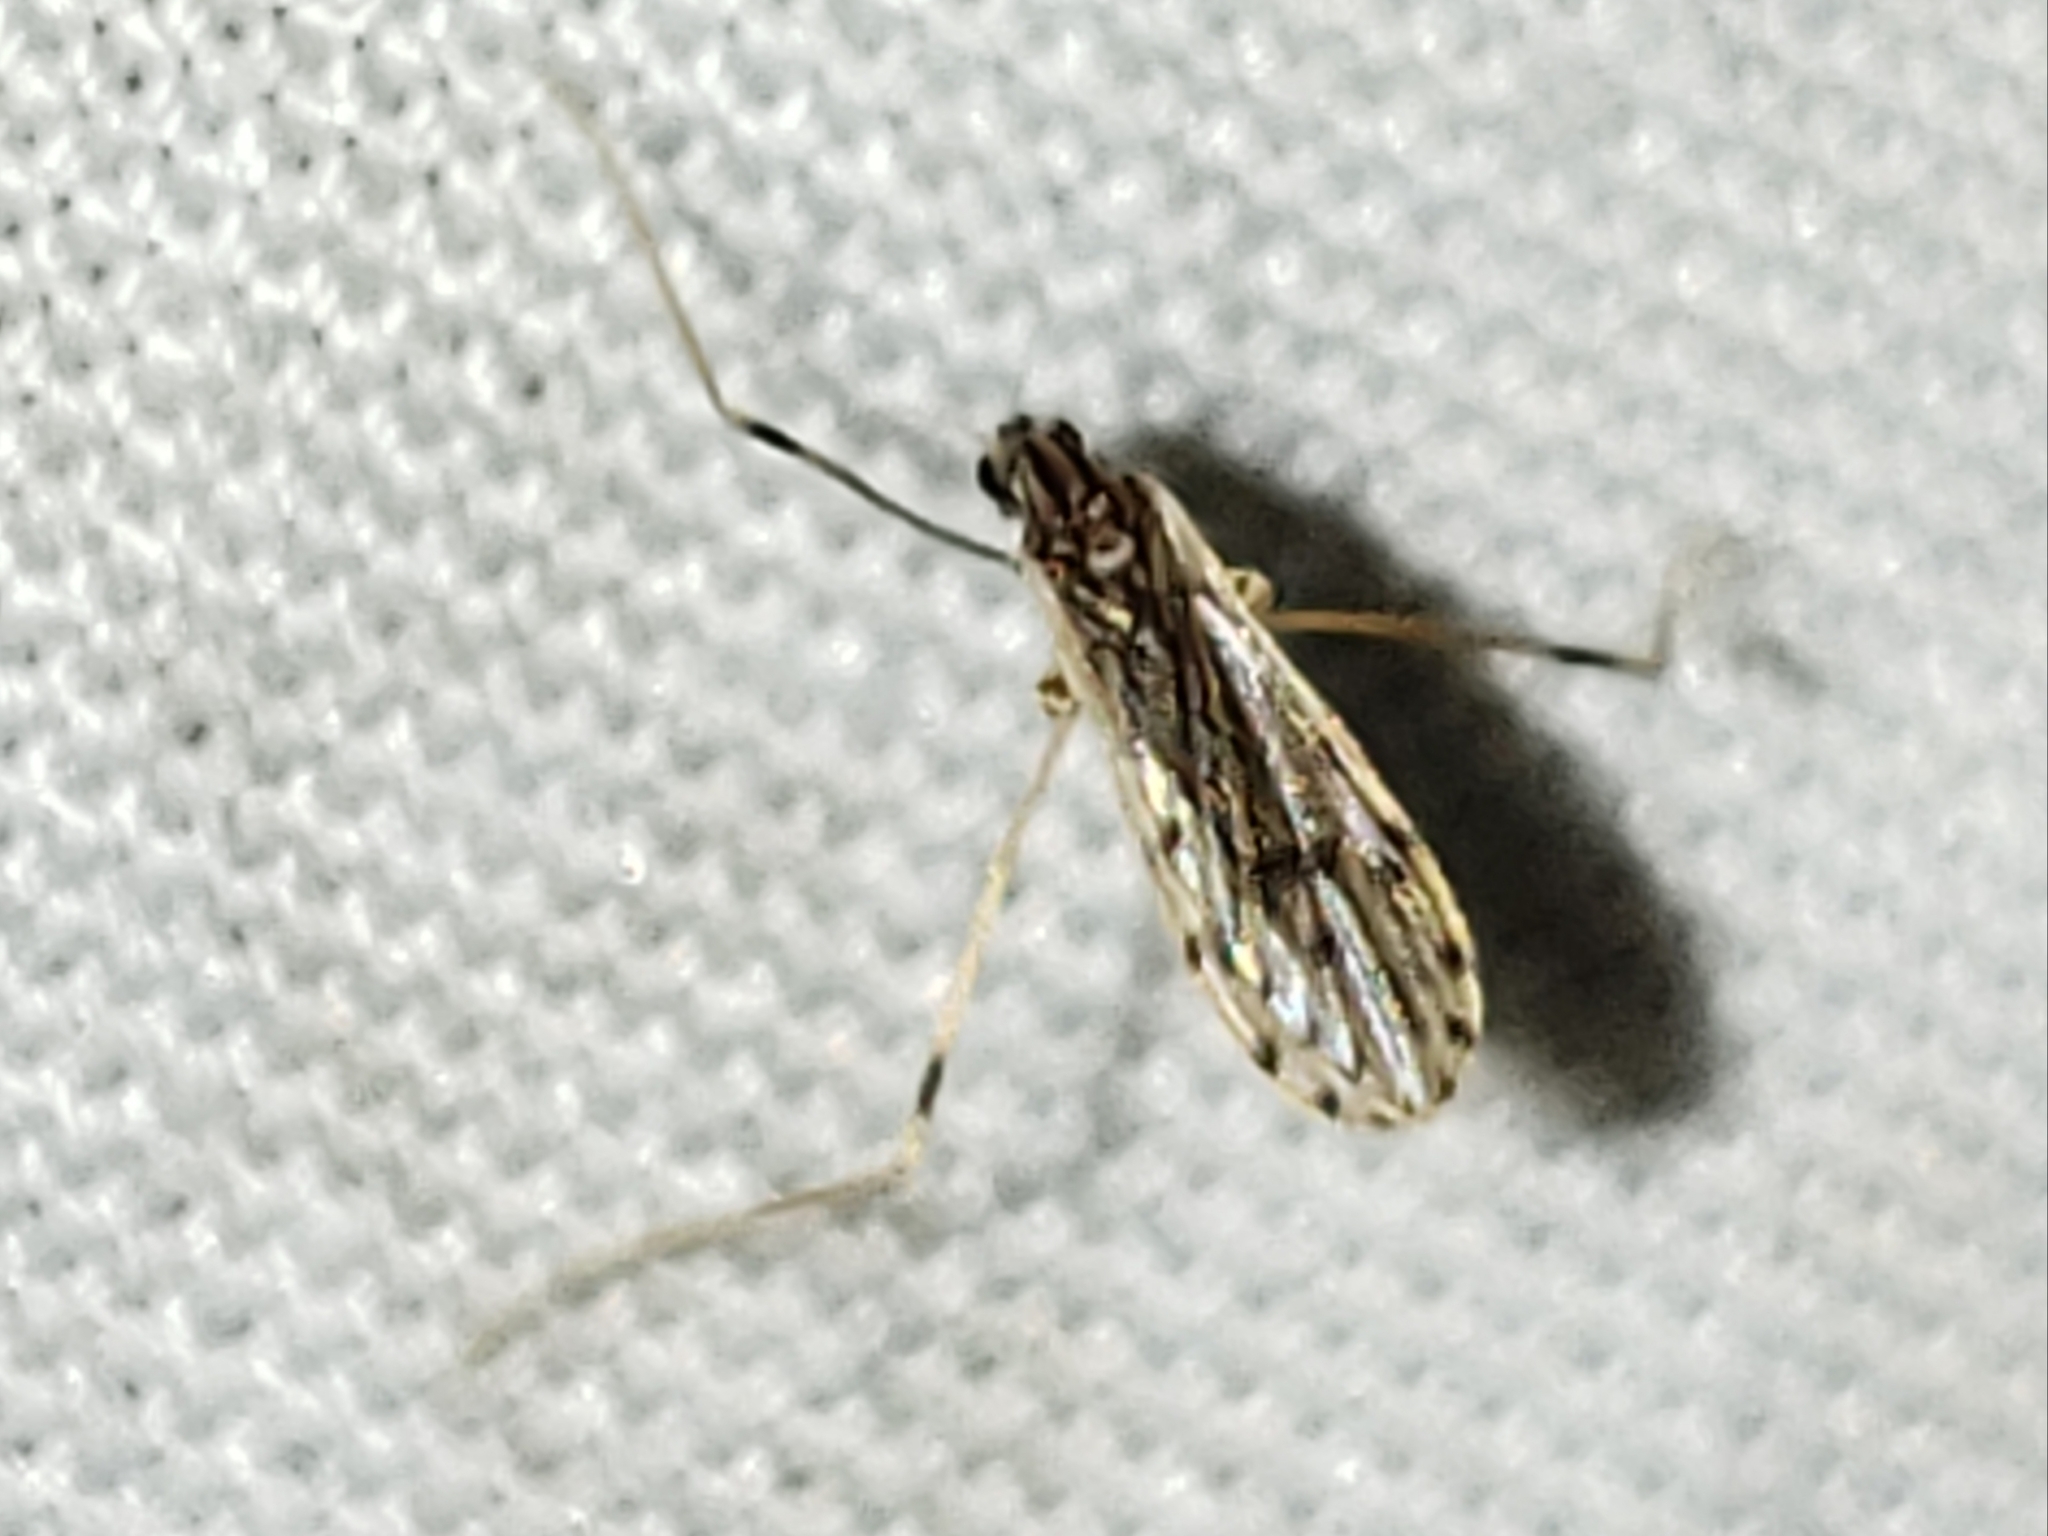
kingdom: Animalia
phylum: Arthropoda
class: Insecta
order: Diptera
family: Limoniidae
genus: Erioptera
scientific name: Erioptera parva
